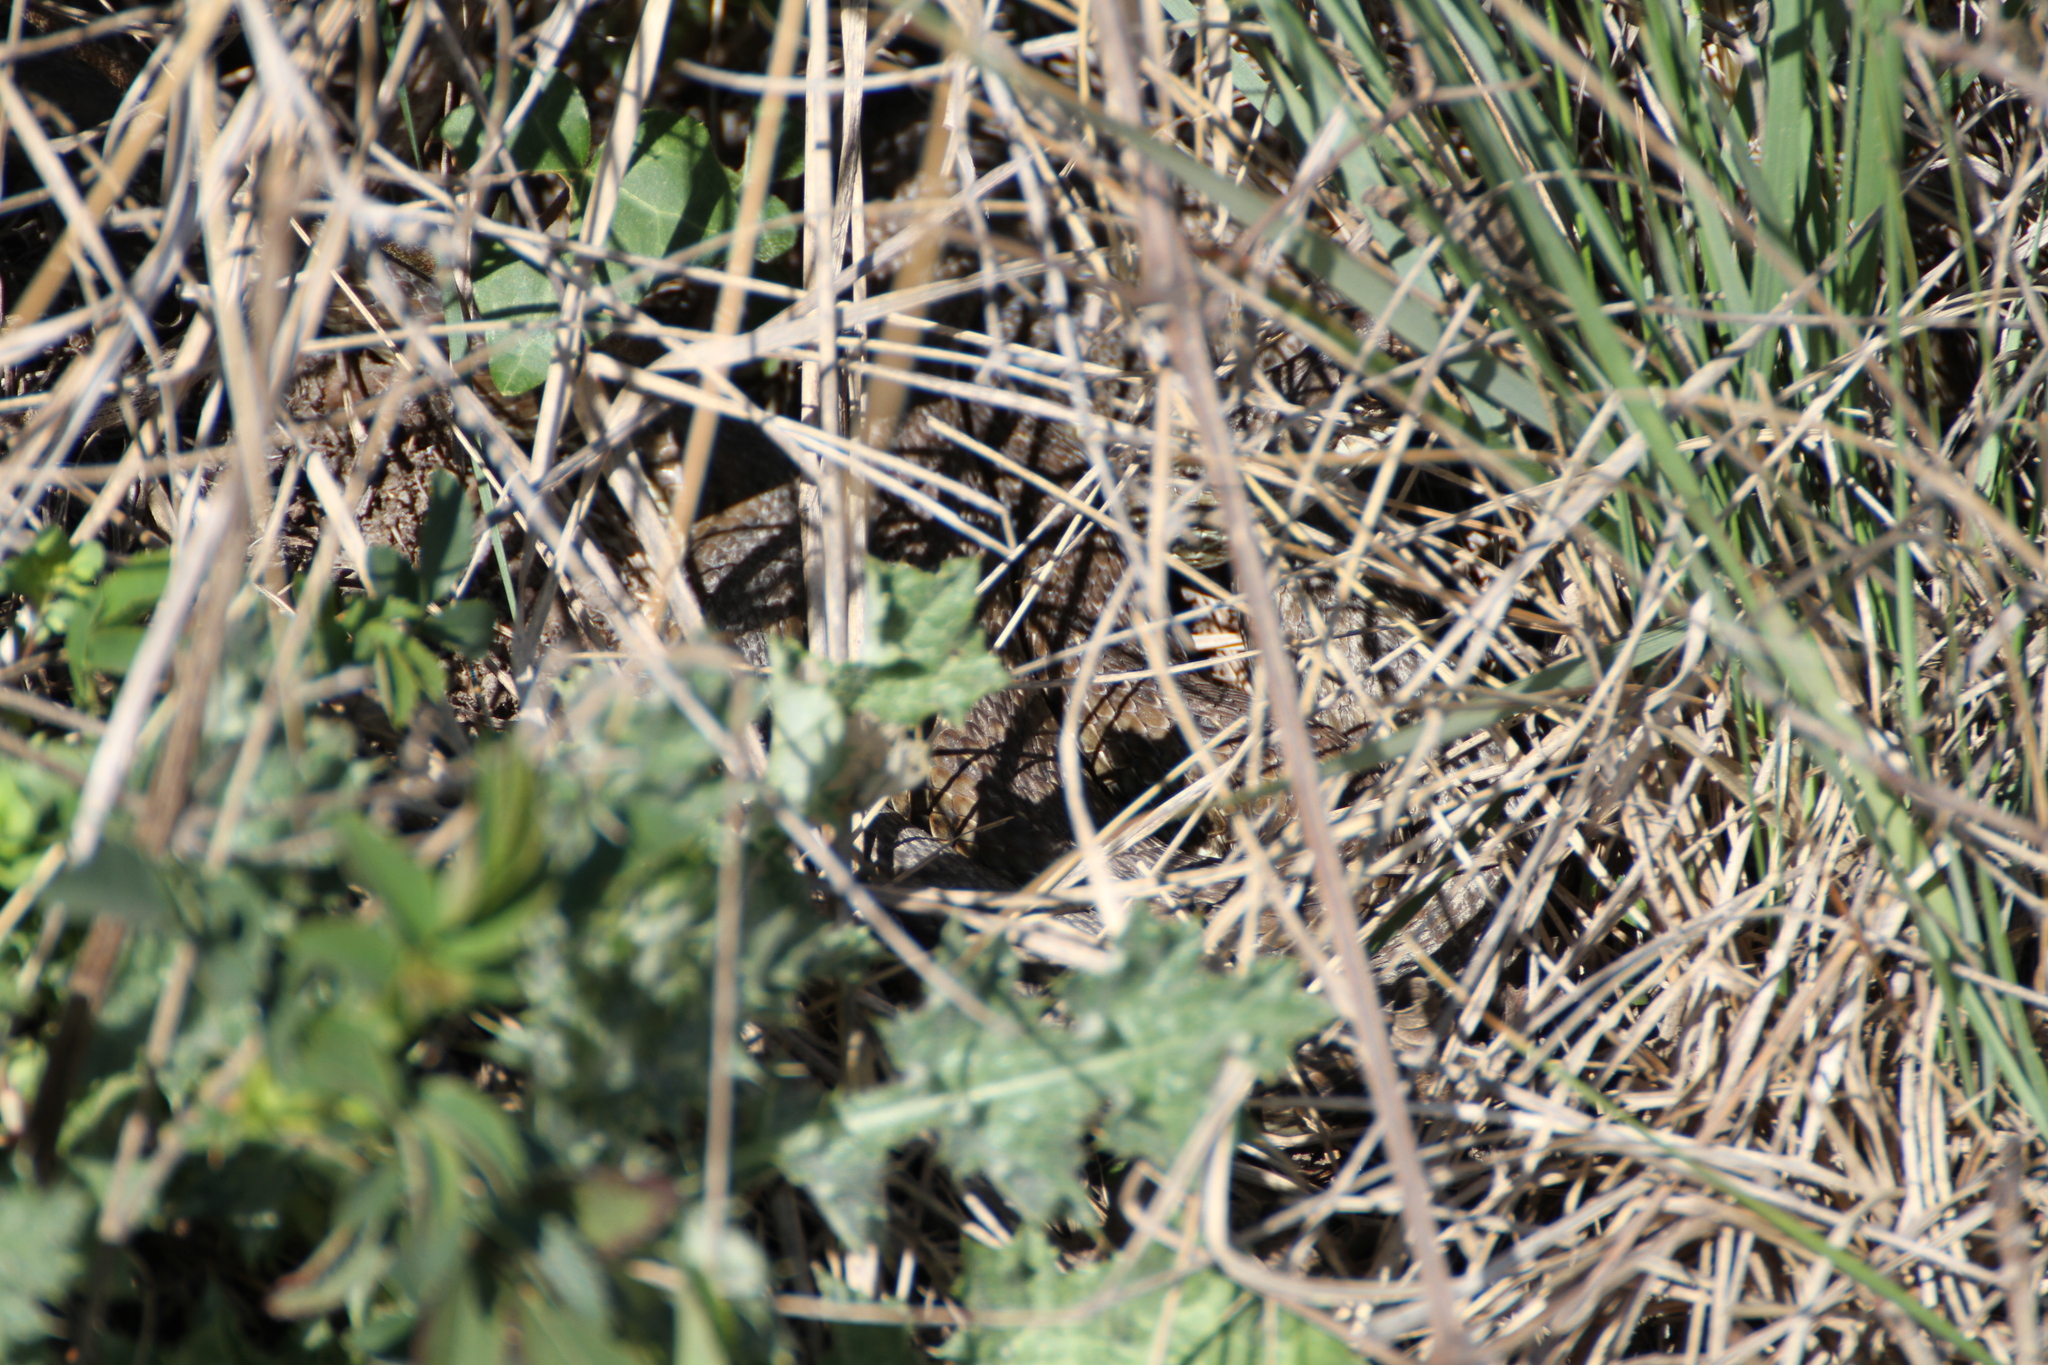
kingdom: Animalia
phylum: Chordata
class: Squamata
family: Psammophiidae
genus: Malpolon
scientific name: Malpolon monspessulanus
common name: Montpellier snake
